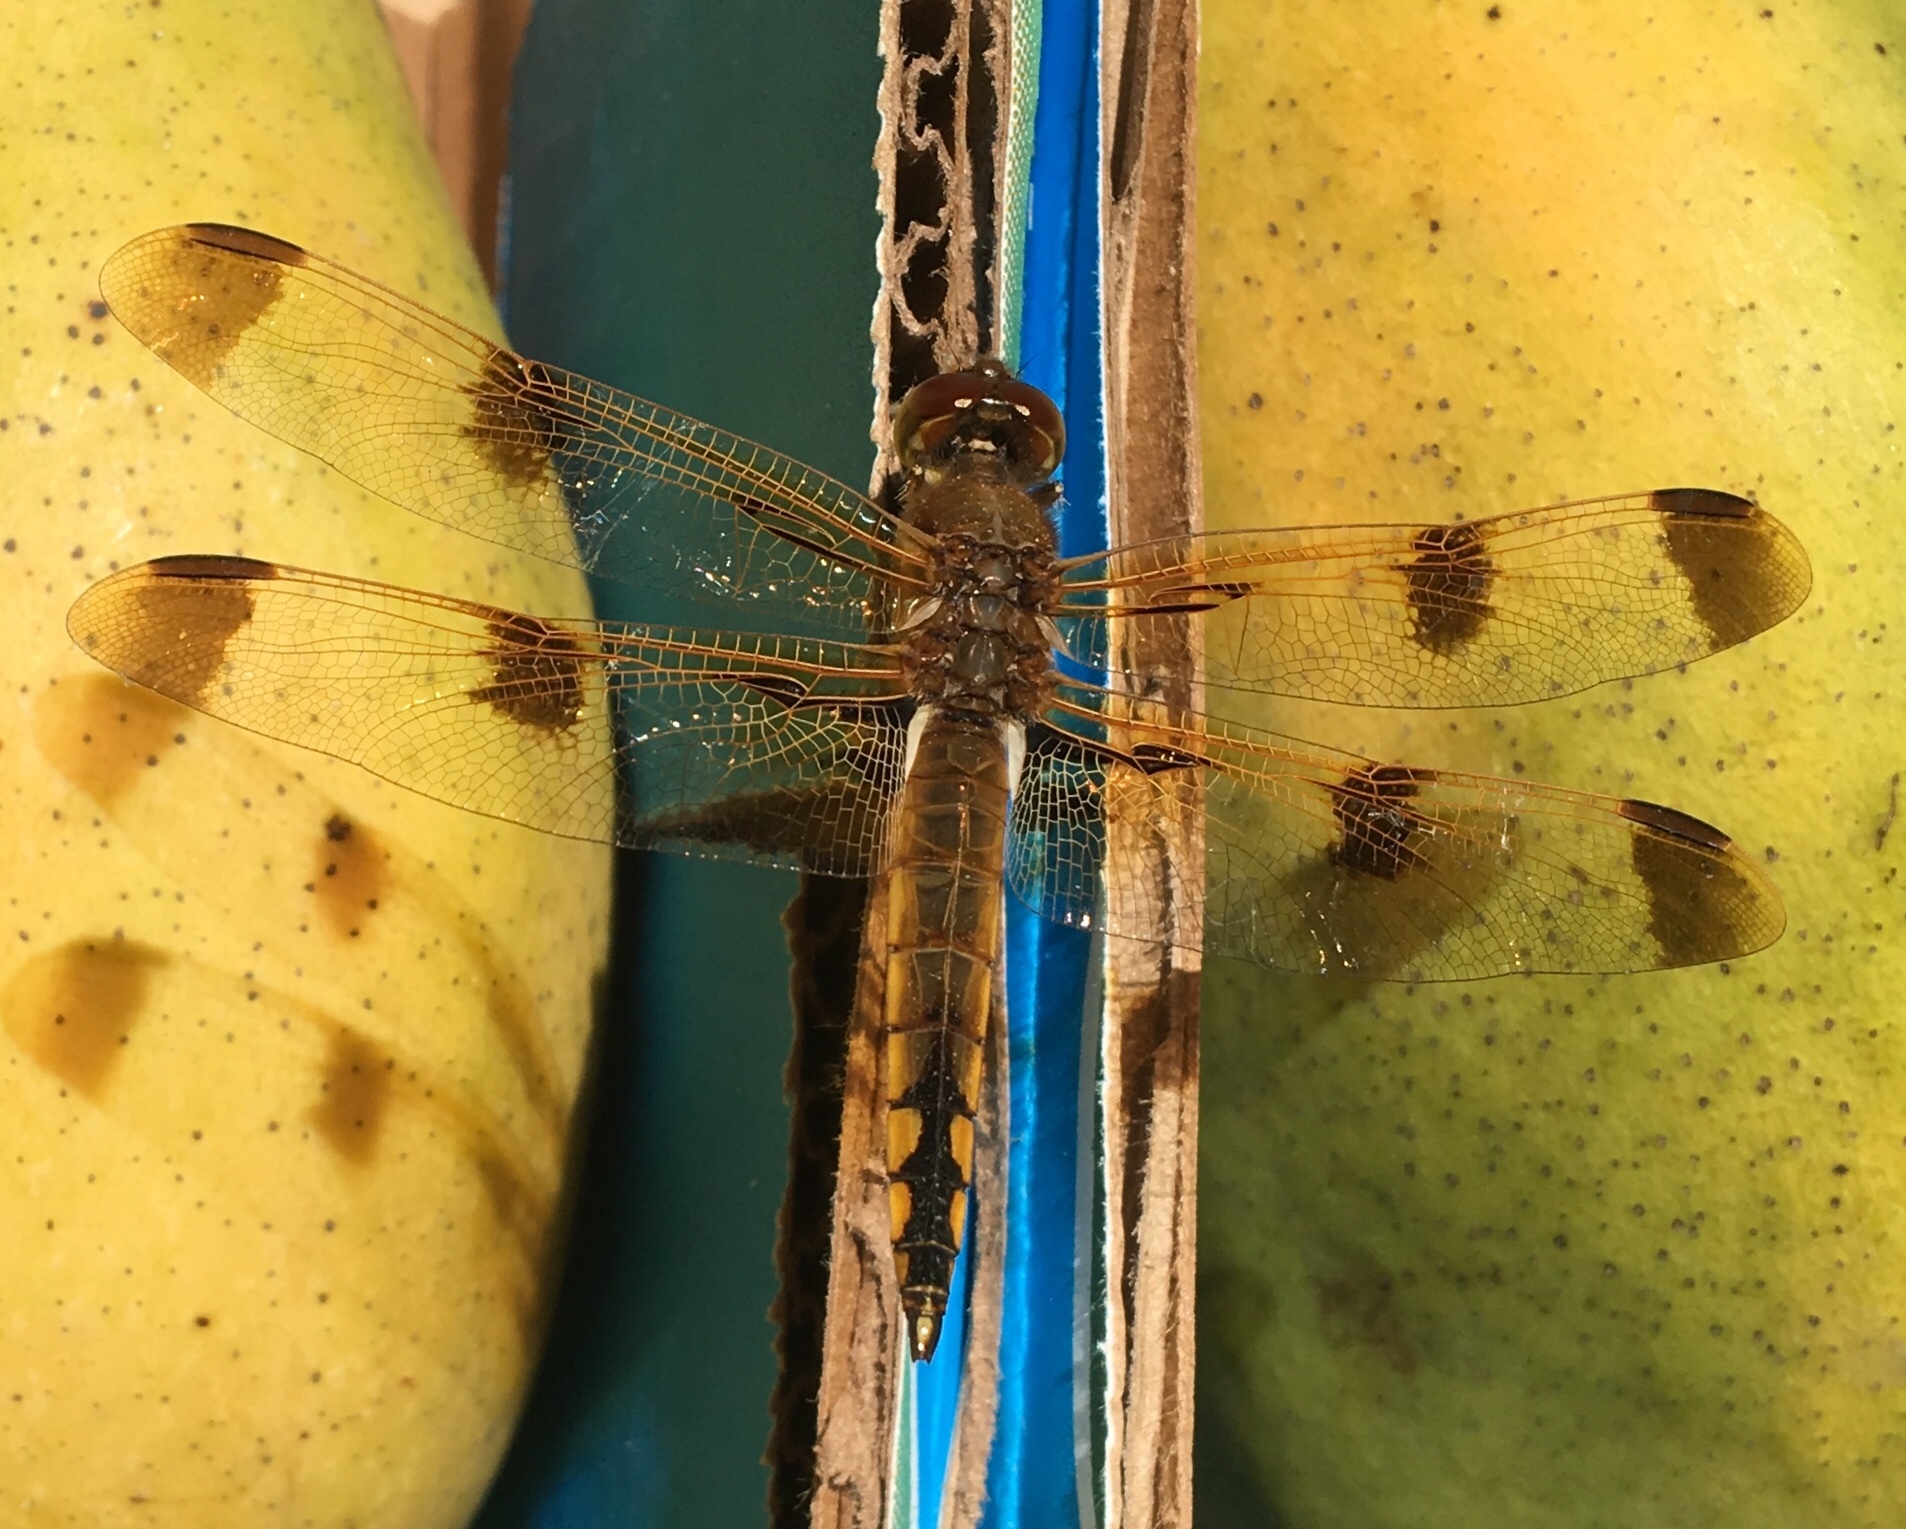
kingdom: Animalia
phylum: Arthropoda
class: Insecta
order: Odonata
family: Libellulidae
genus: Libellula
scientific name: Libellula semifasciata
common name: Painted skimmer
